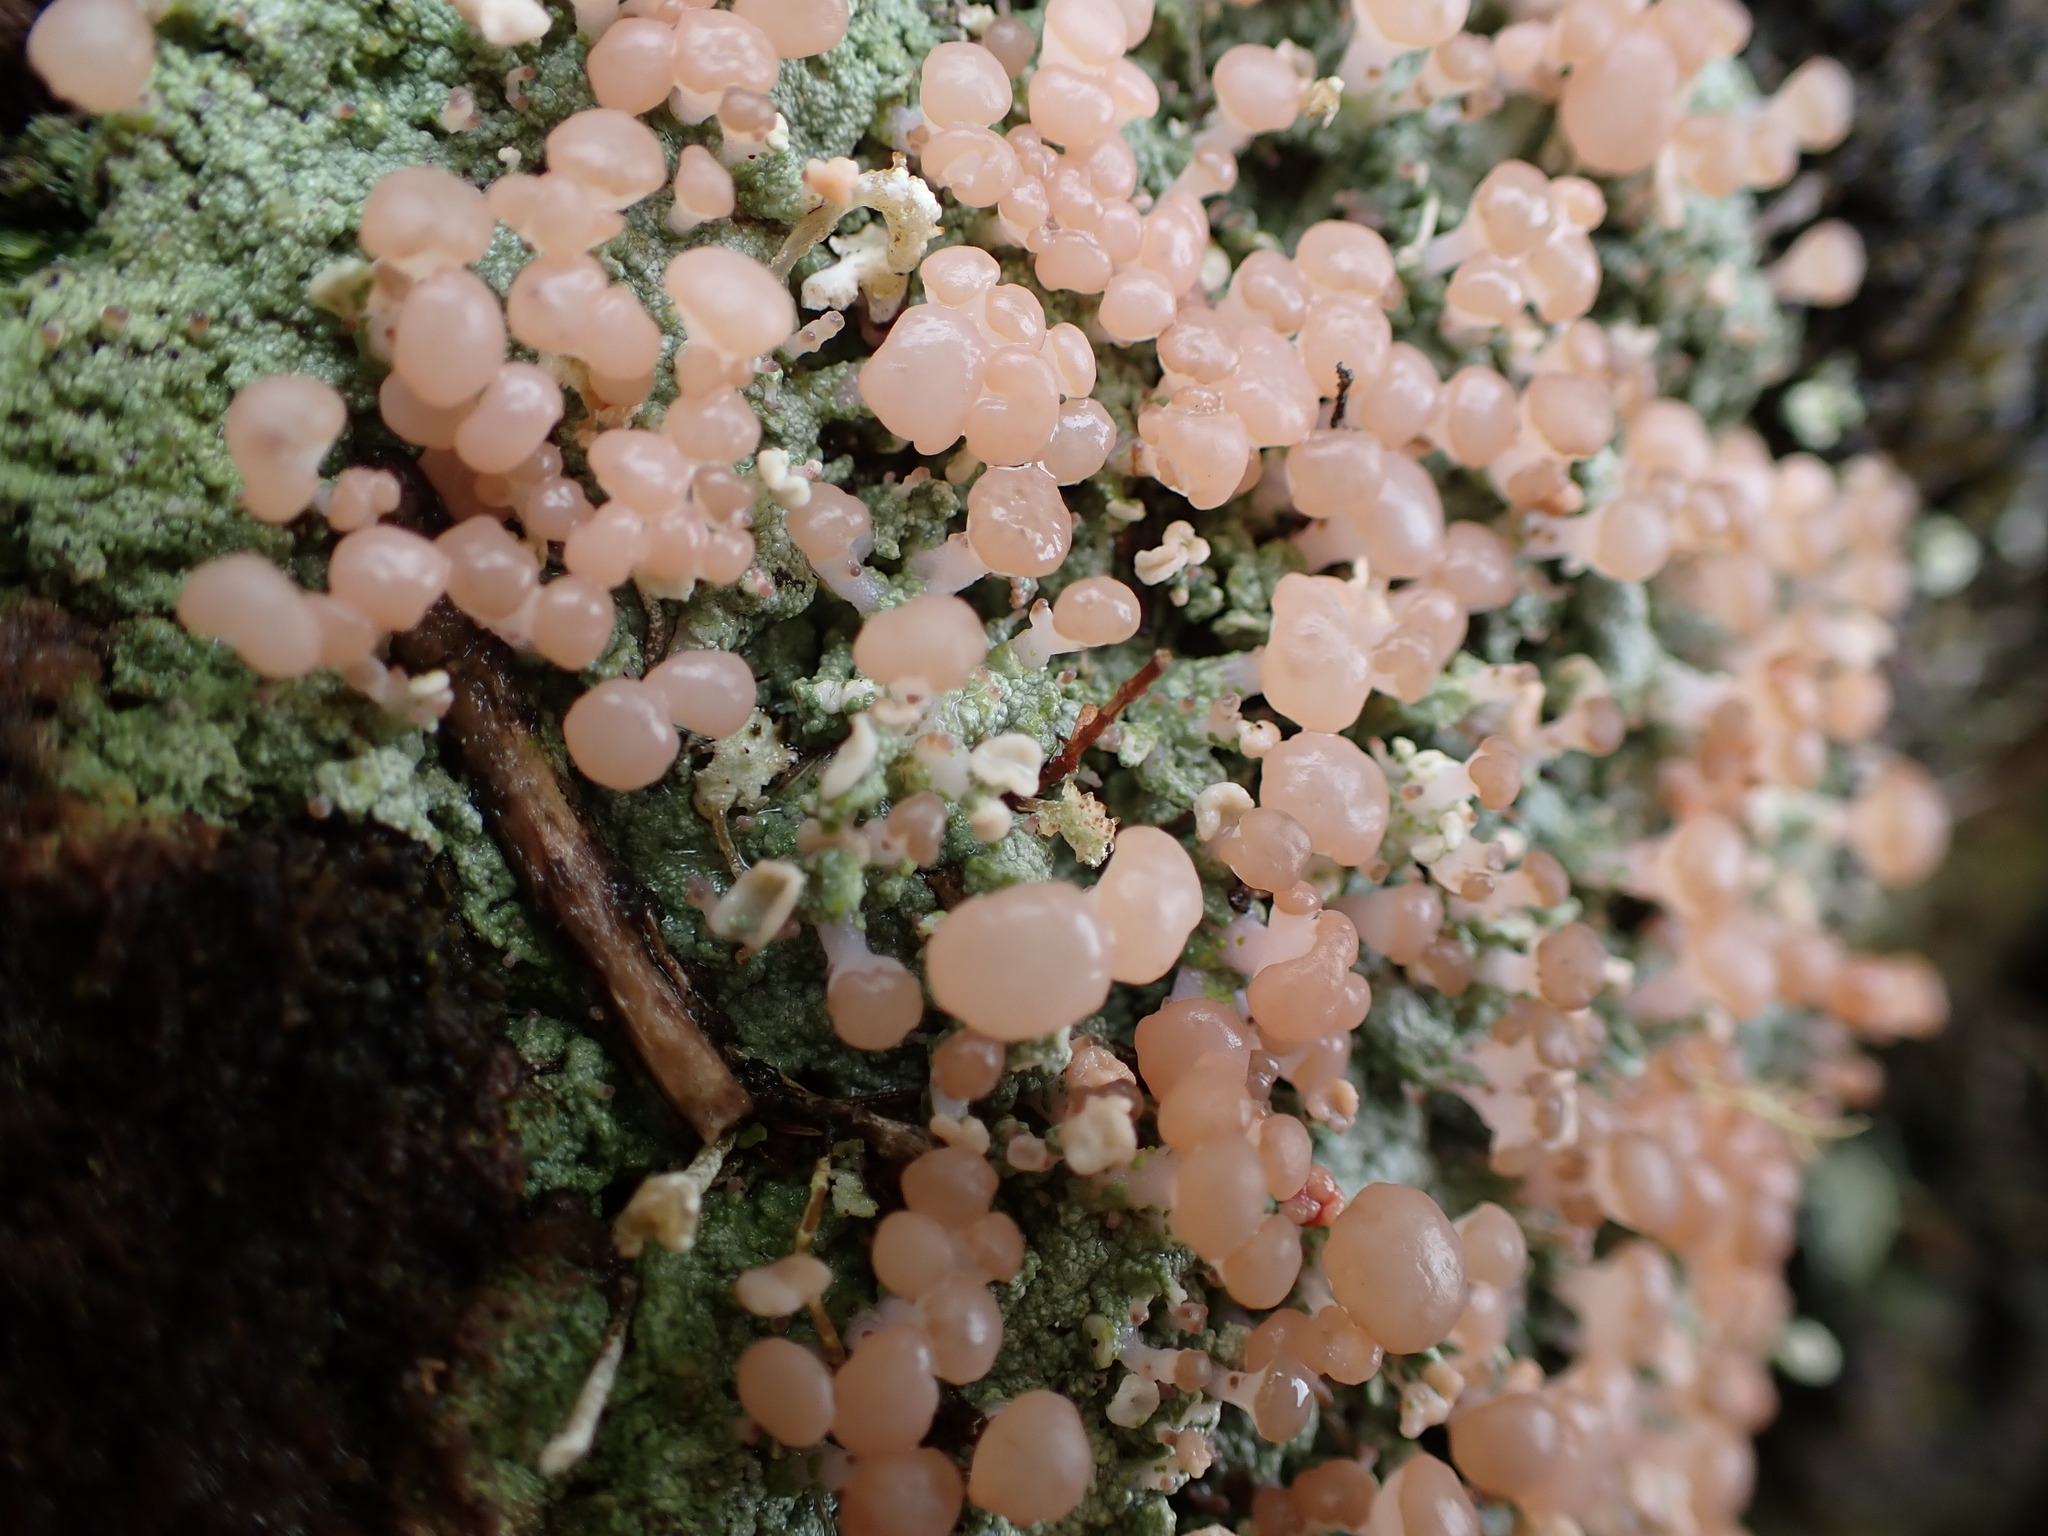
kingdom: Fungi
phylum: Ascomycota
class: Lecanoromycetes
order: Baeomycetales
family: Baeomycetaceae
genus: Baeomyces
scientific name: Baeomyces heteromorphus
